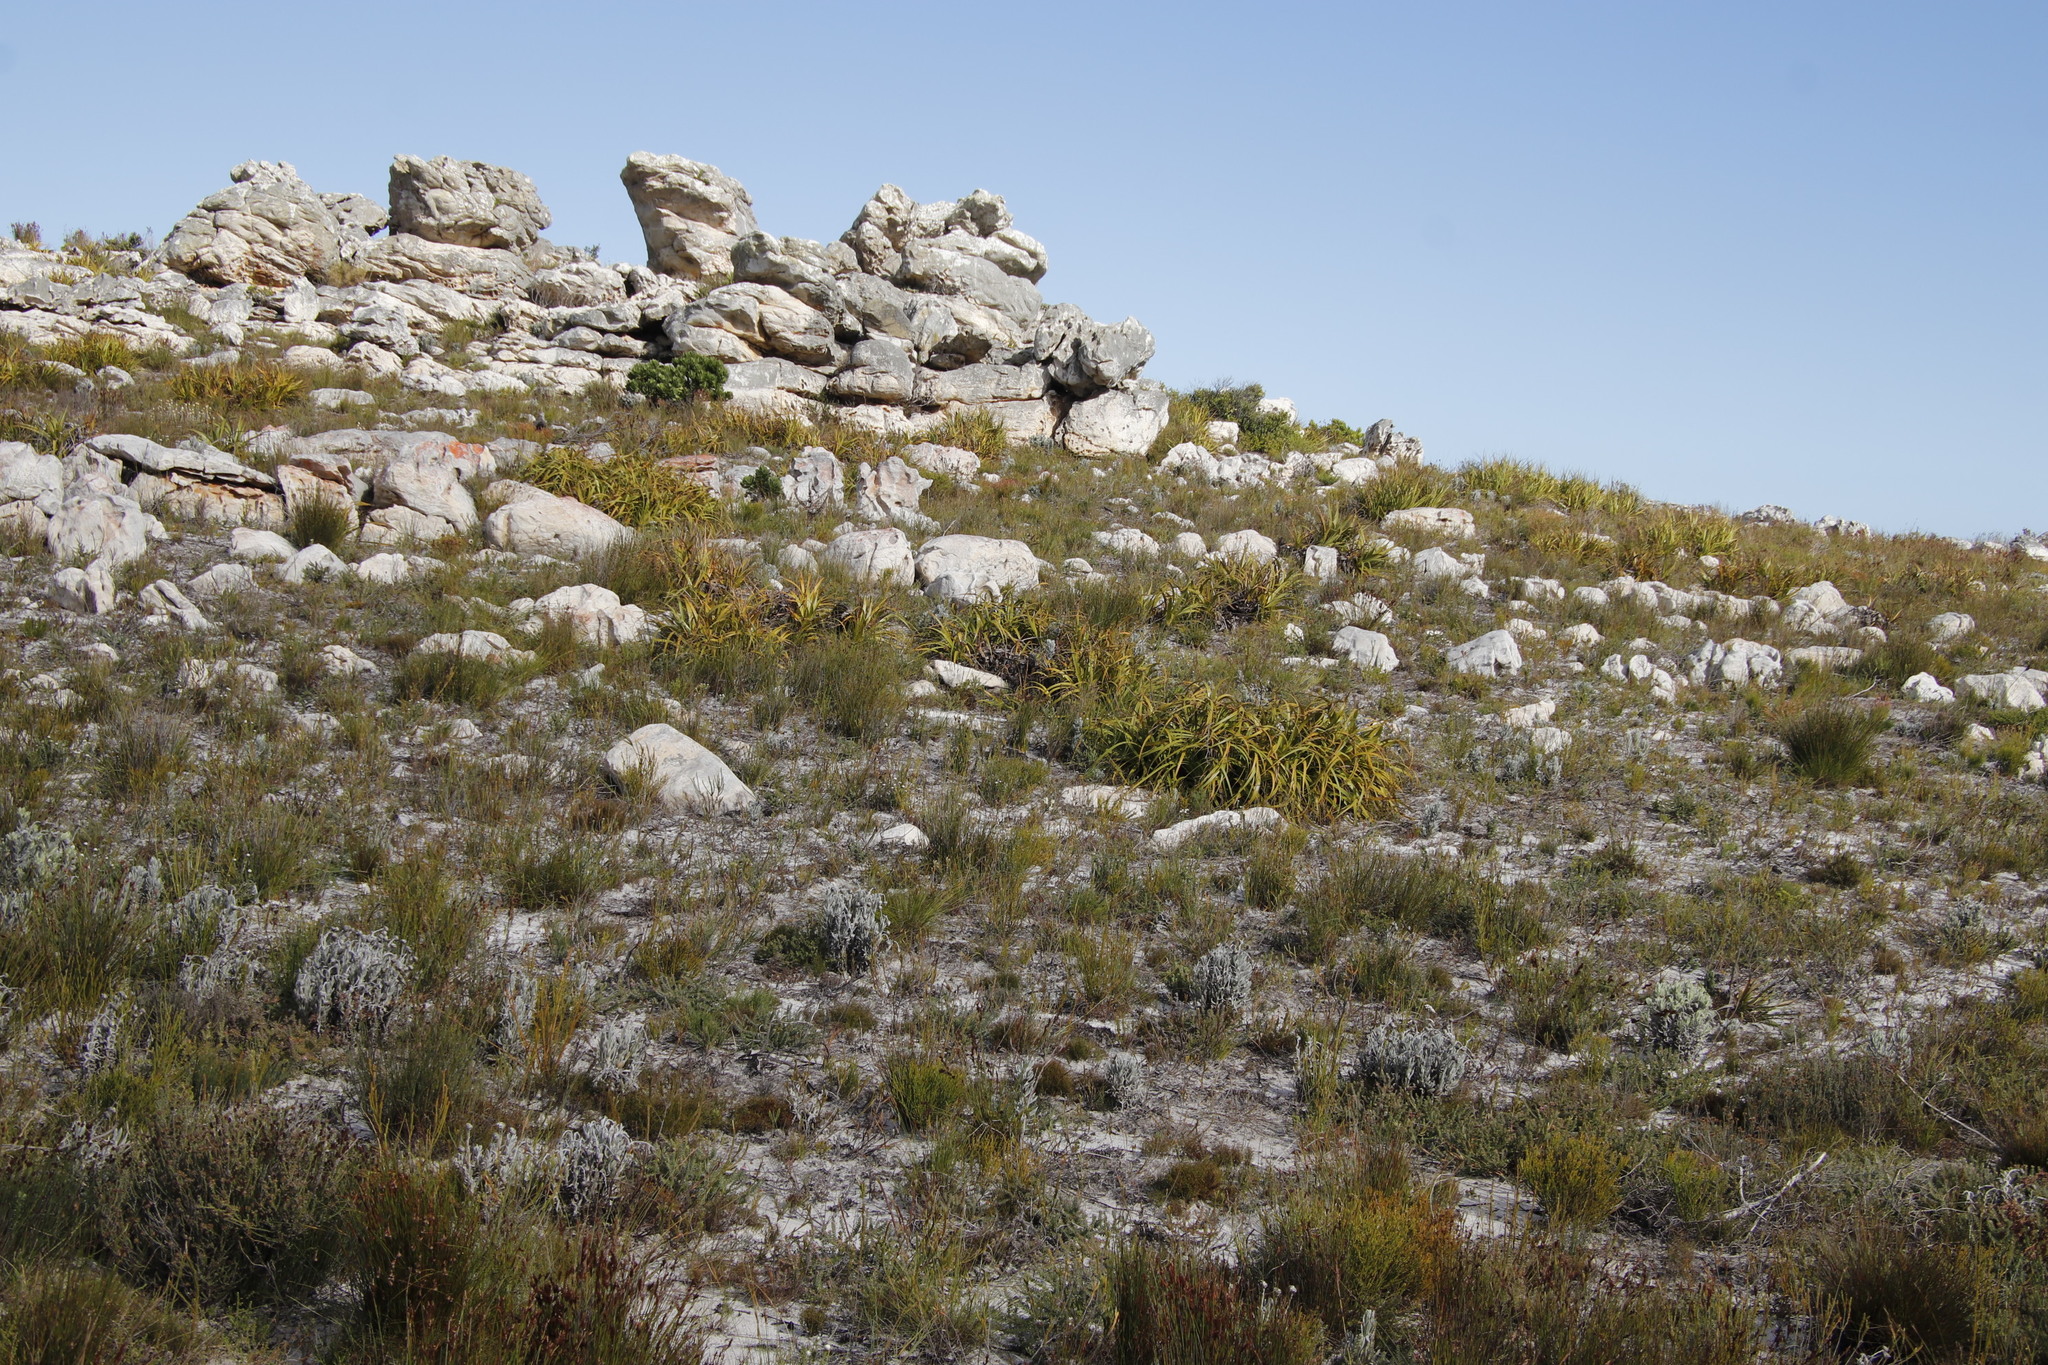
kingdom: Plantae
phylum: Tracheophyta
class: Liliopsida
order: Poales
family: Cyperaceae
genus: Tetraria
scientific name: Tetraria thermalis
